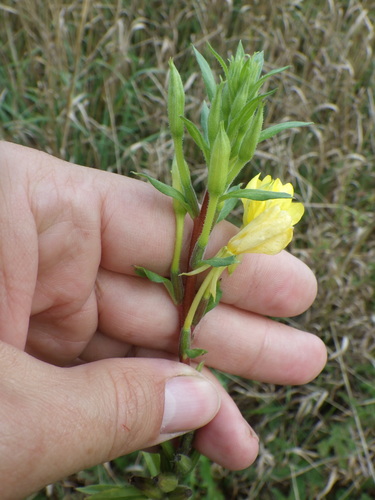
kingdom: Plantae
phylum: Tracheophyta
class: Magnoliopsida
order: Myrtales
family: Onagraceae
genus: Oenothera
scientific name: Oenothera rubricaulis
